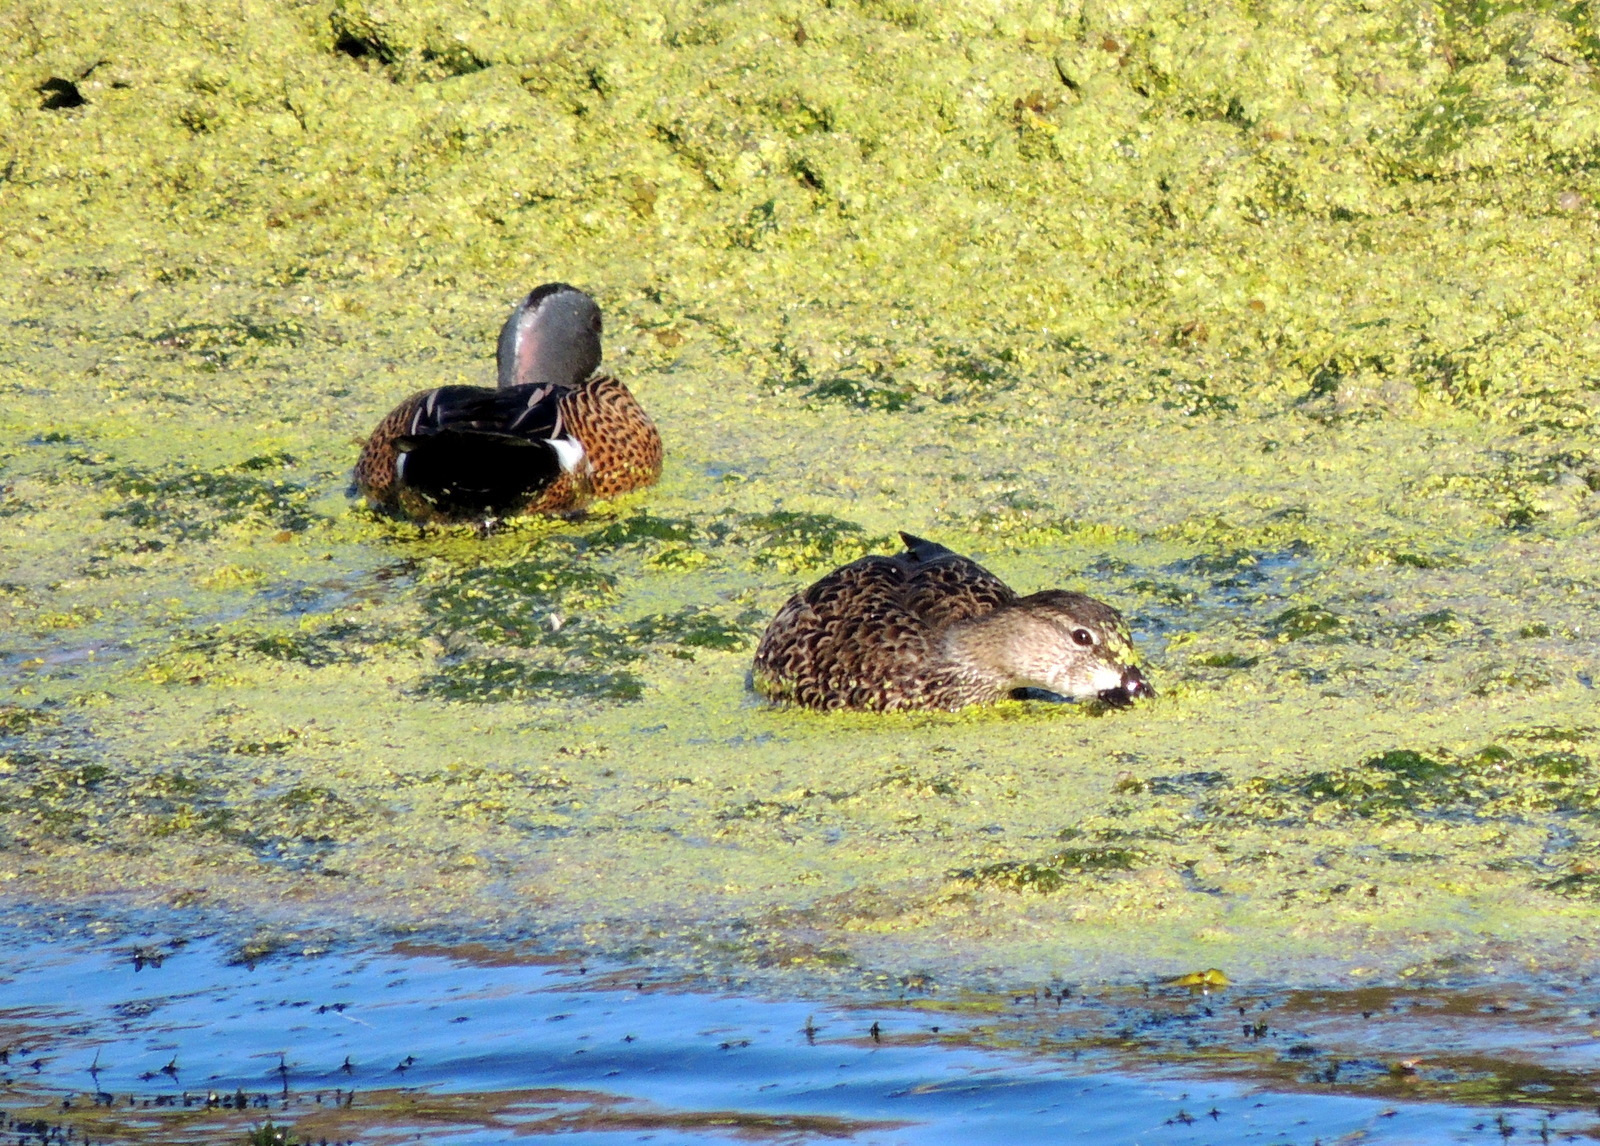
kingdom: Animalia
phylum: Chordata
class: Aves
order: Anseriformes
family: Anatidae
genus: Spatula
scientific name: Spatula discors
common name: Blue-winged teal
